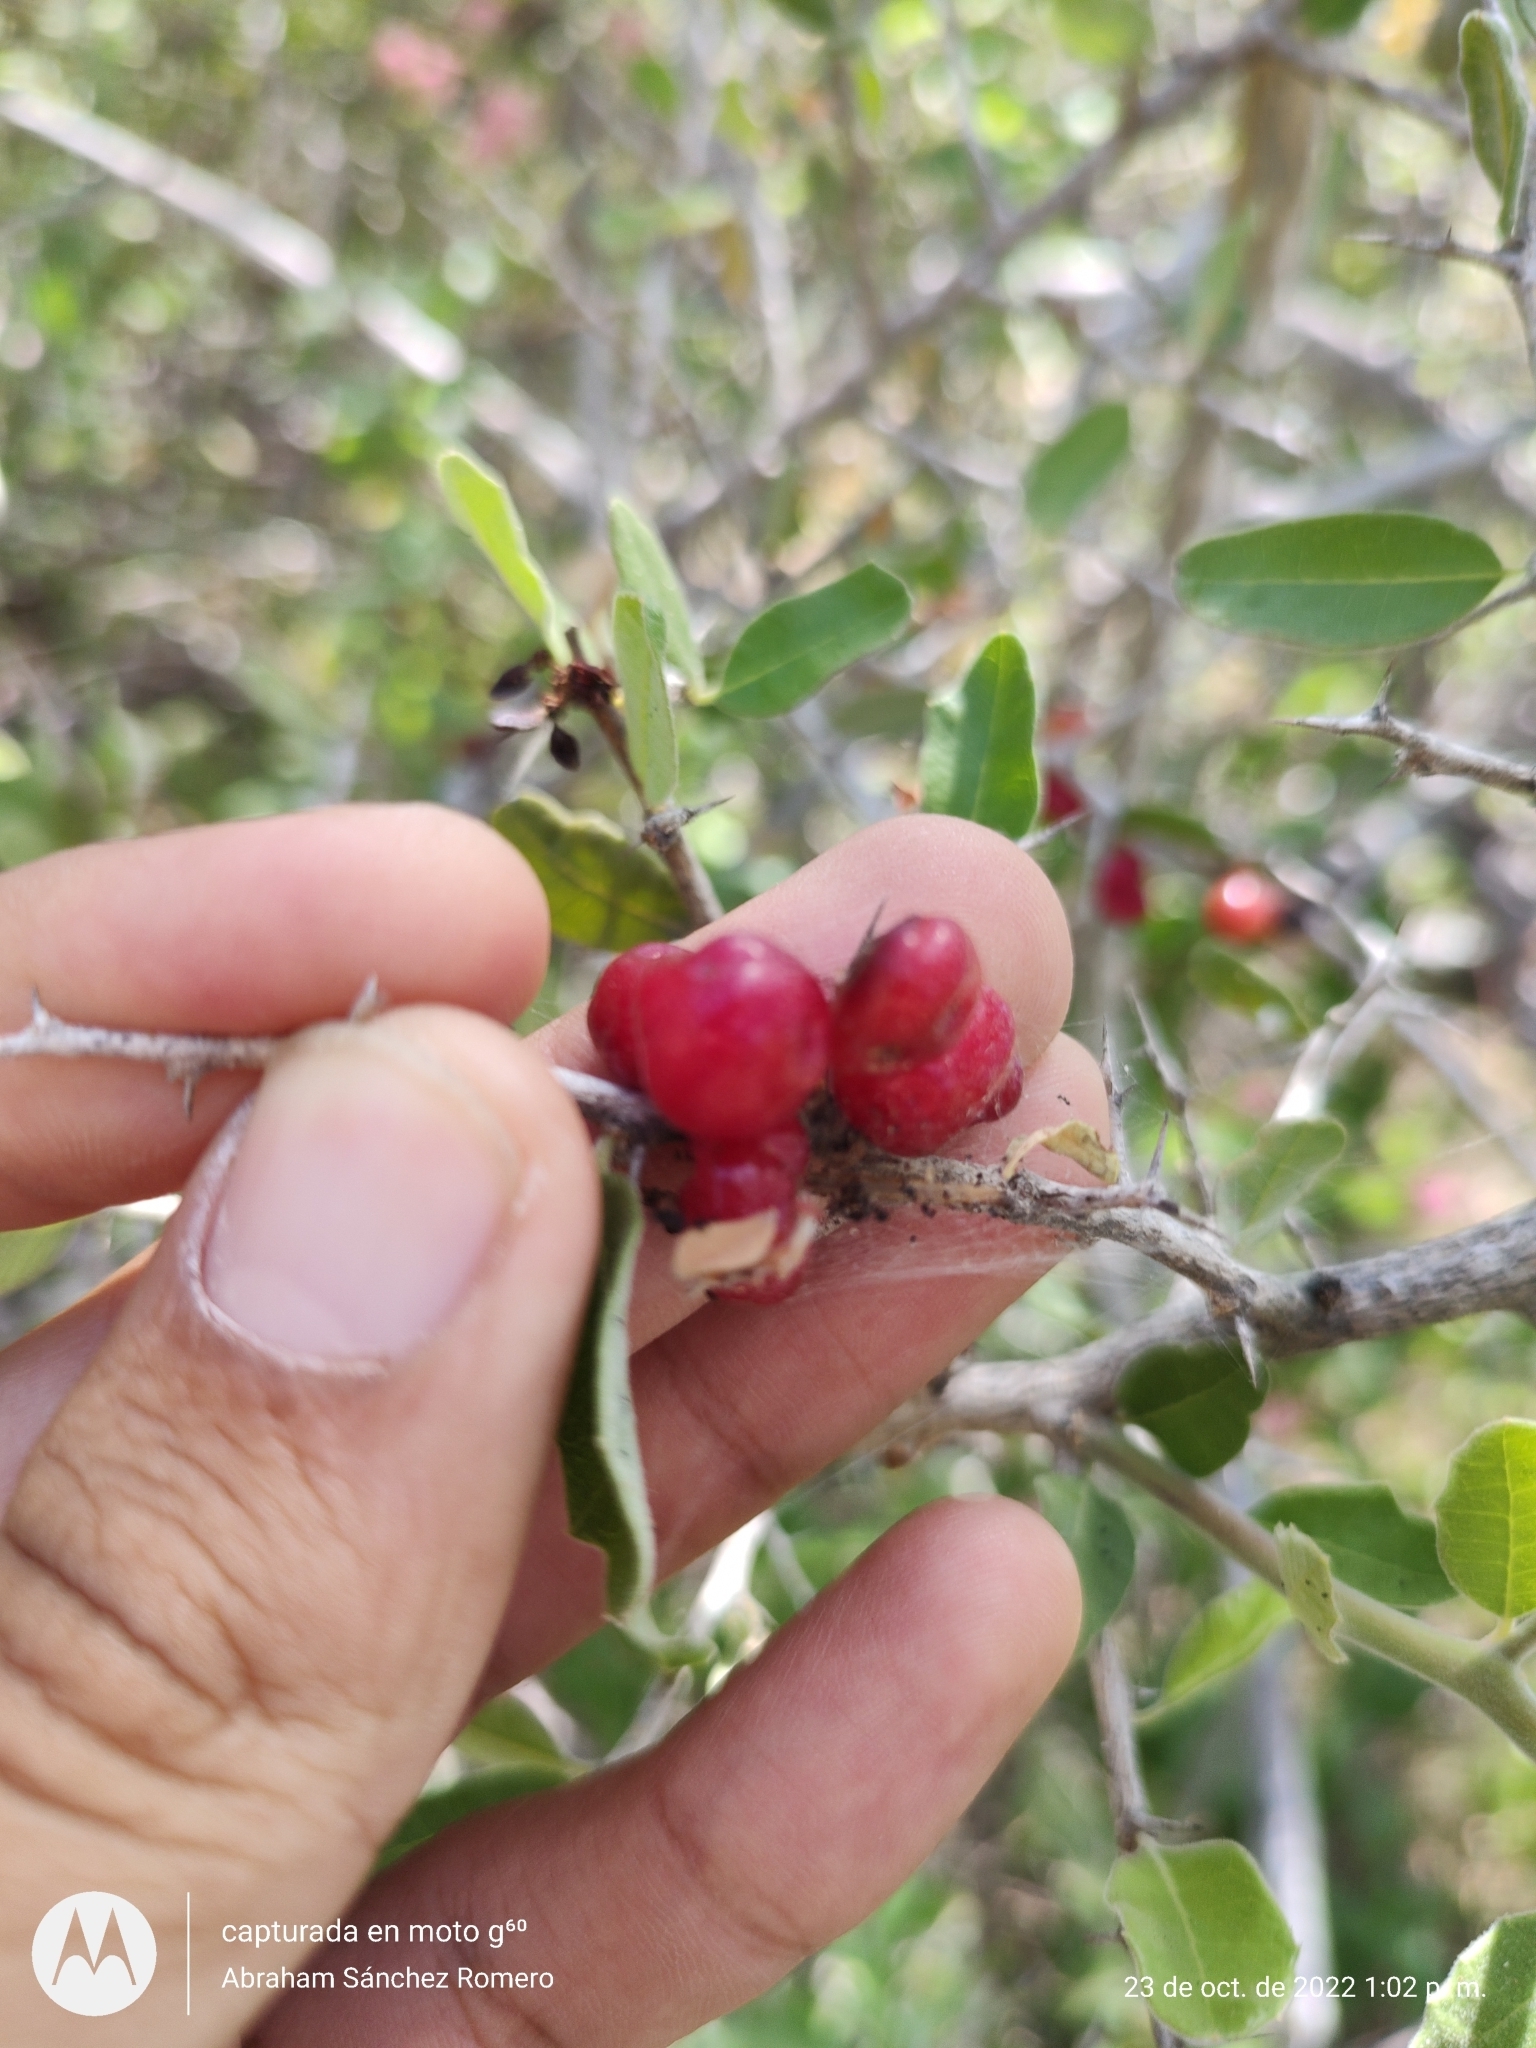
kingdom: Plantae
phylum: Tracheophyta
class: Magnoliopsida
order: Sapindales
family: Simaroubaceae
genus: Castela
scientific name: Castela peninsularis
